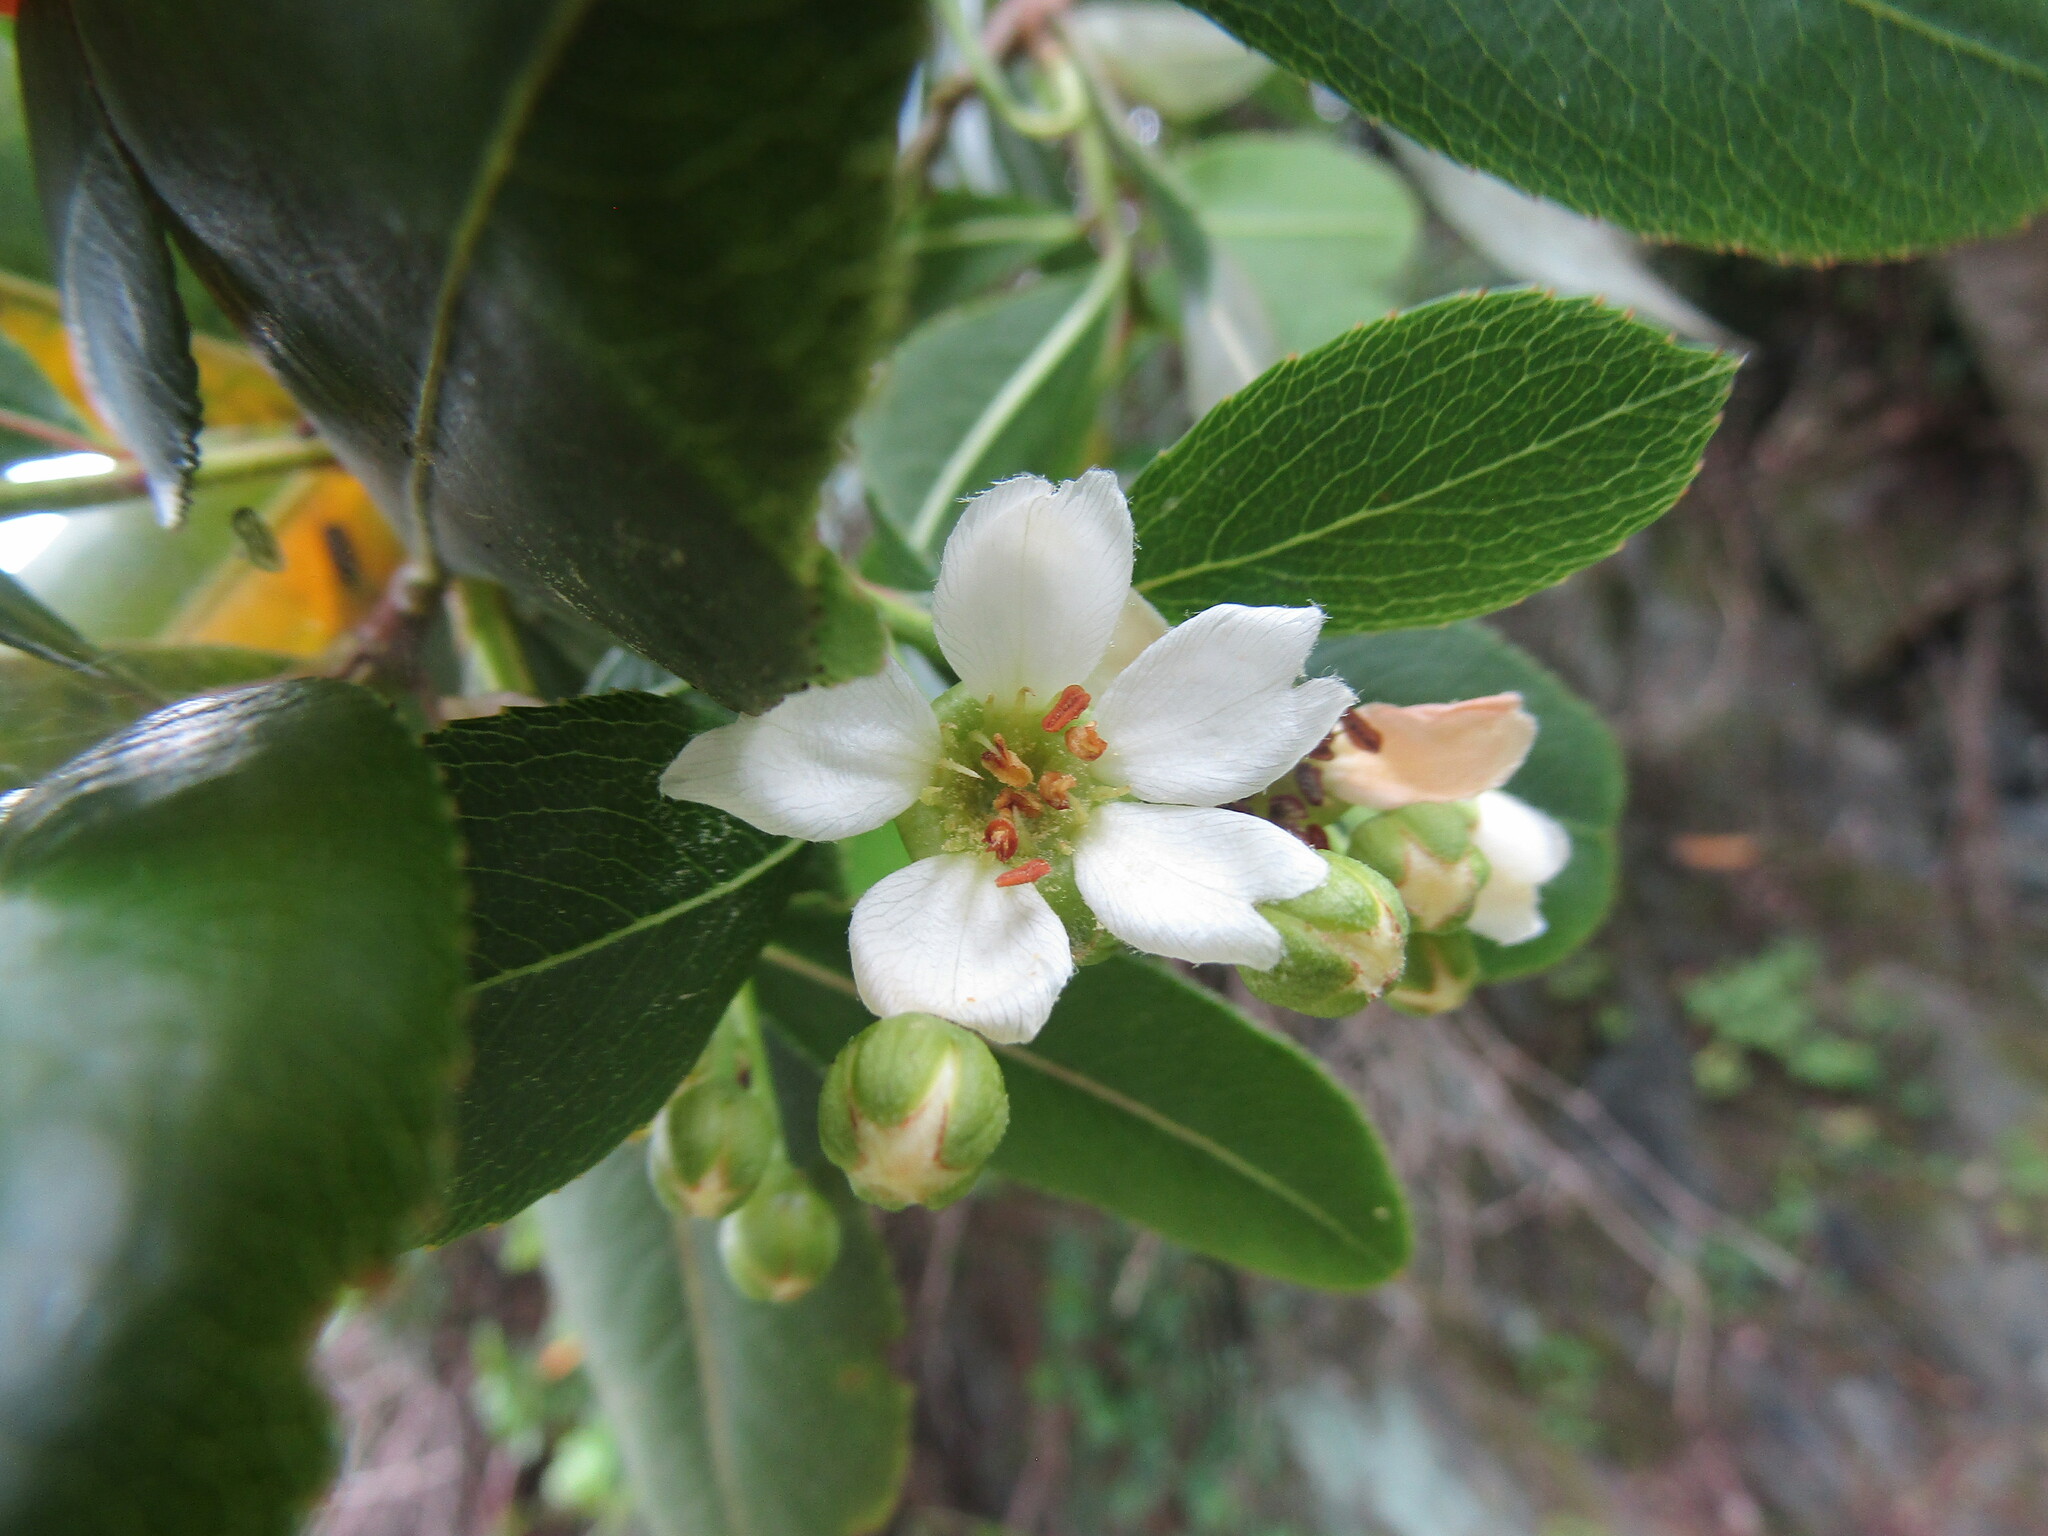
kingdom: Plantae
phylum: Tracheophyta
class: Magnoliopsida
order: Rosales
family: Rosaceae
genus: Kageneckia
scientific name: Kageneckia oblonga
